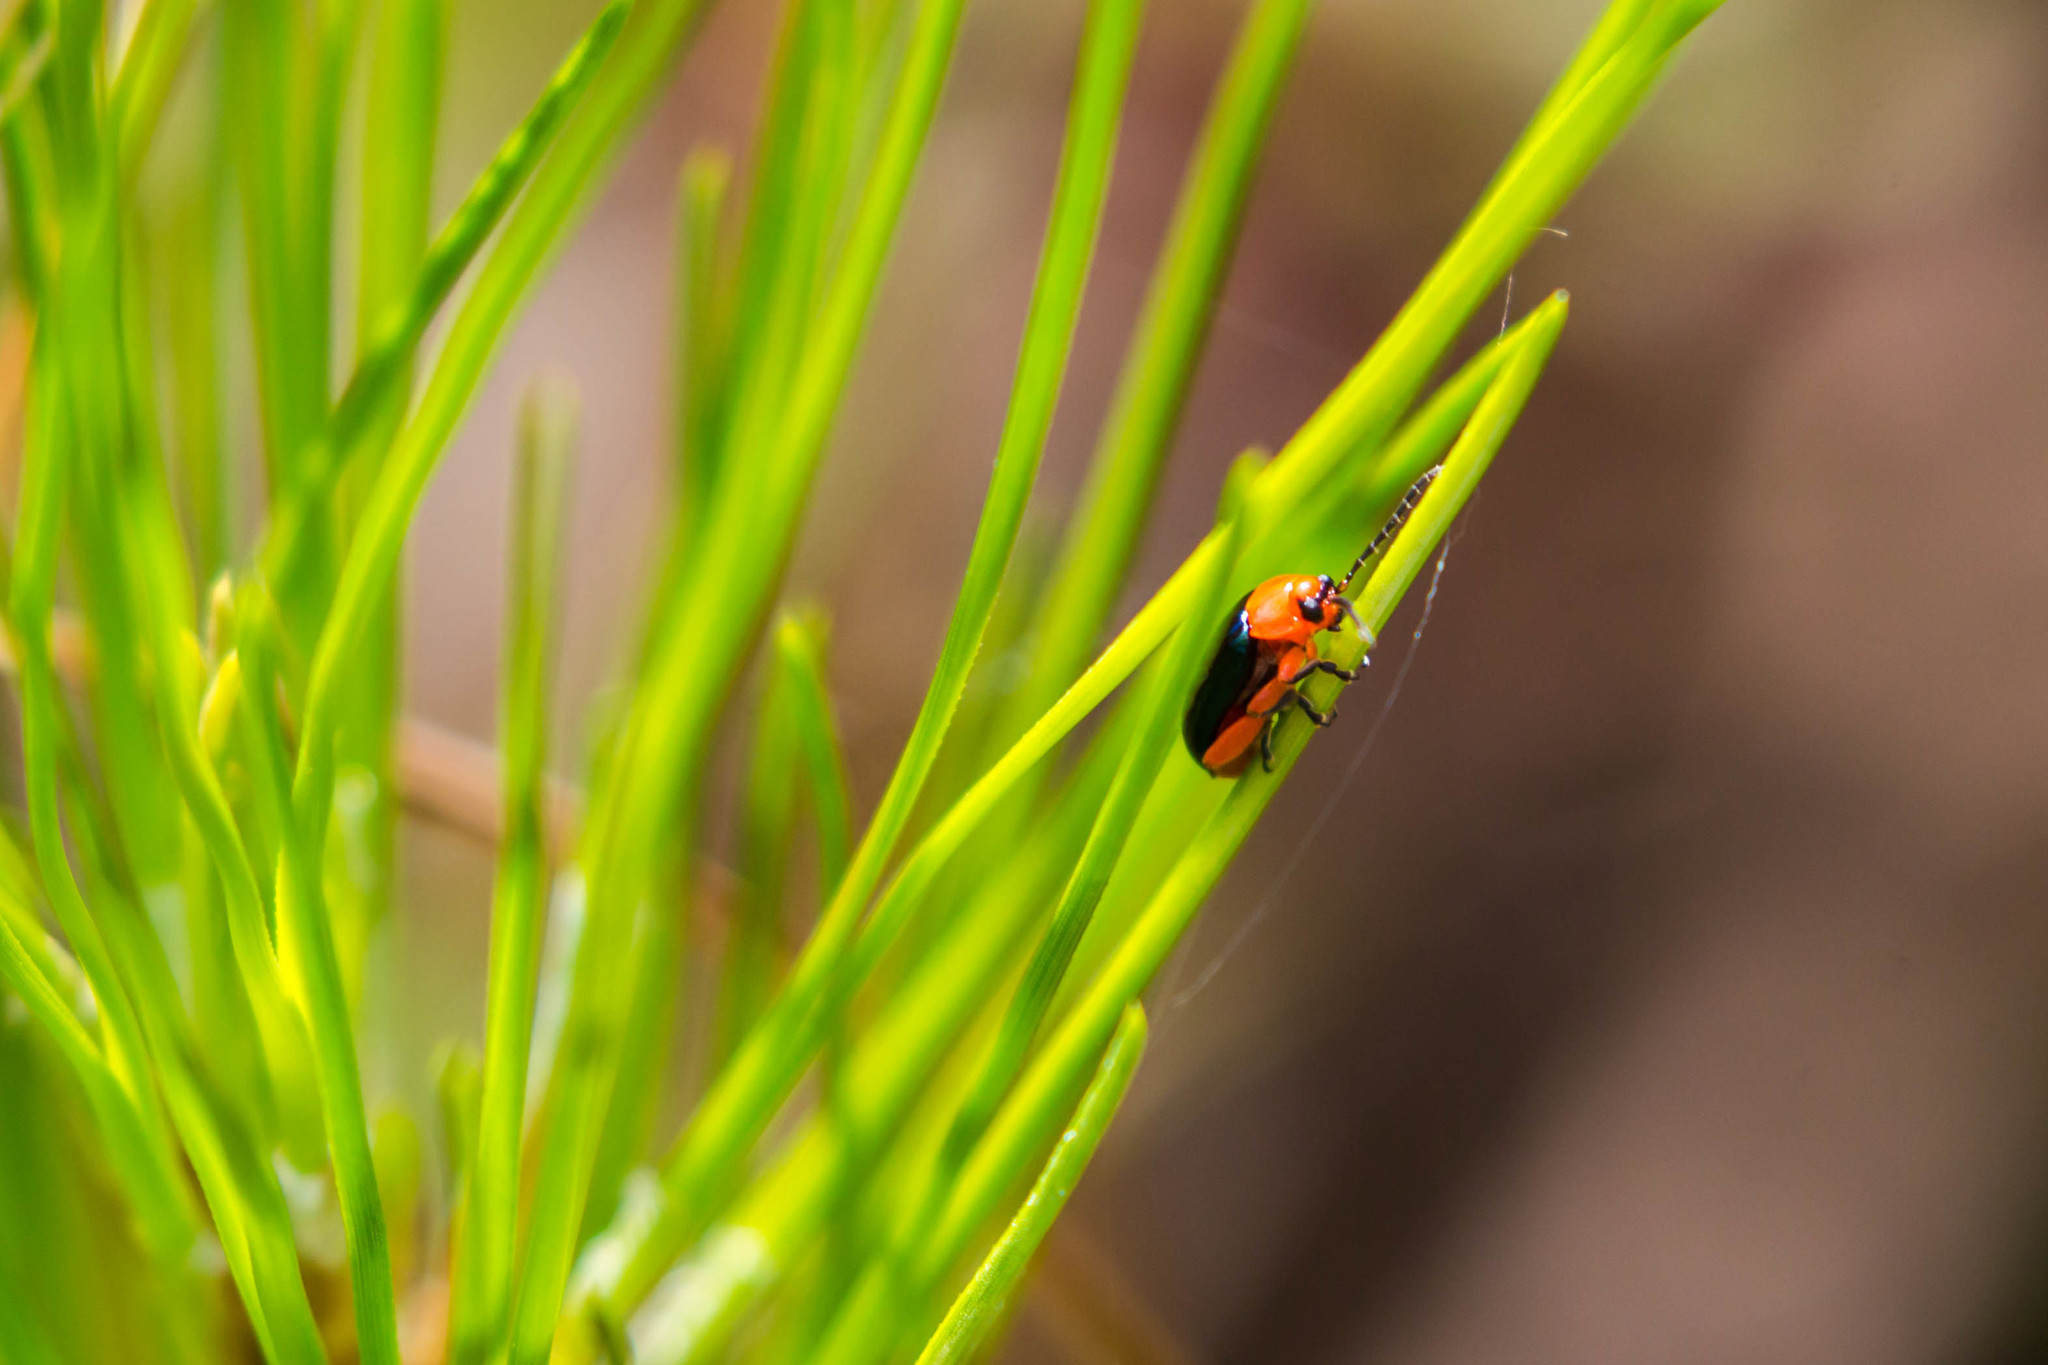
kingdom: Animalia
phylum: Arthropoda
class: Insecta
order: Coleoptera
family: Chrysomelidae
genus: Asphaera
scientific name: Asphaera lustrans
